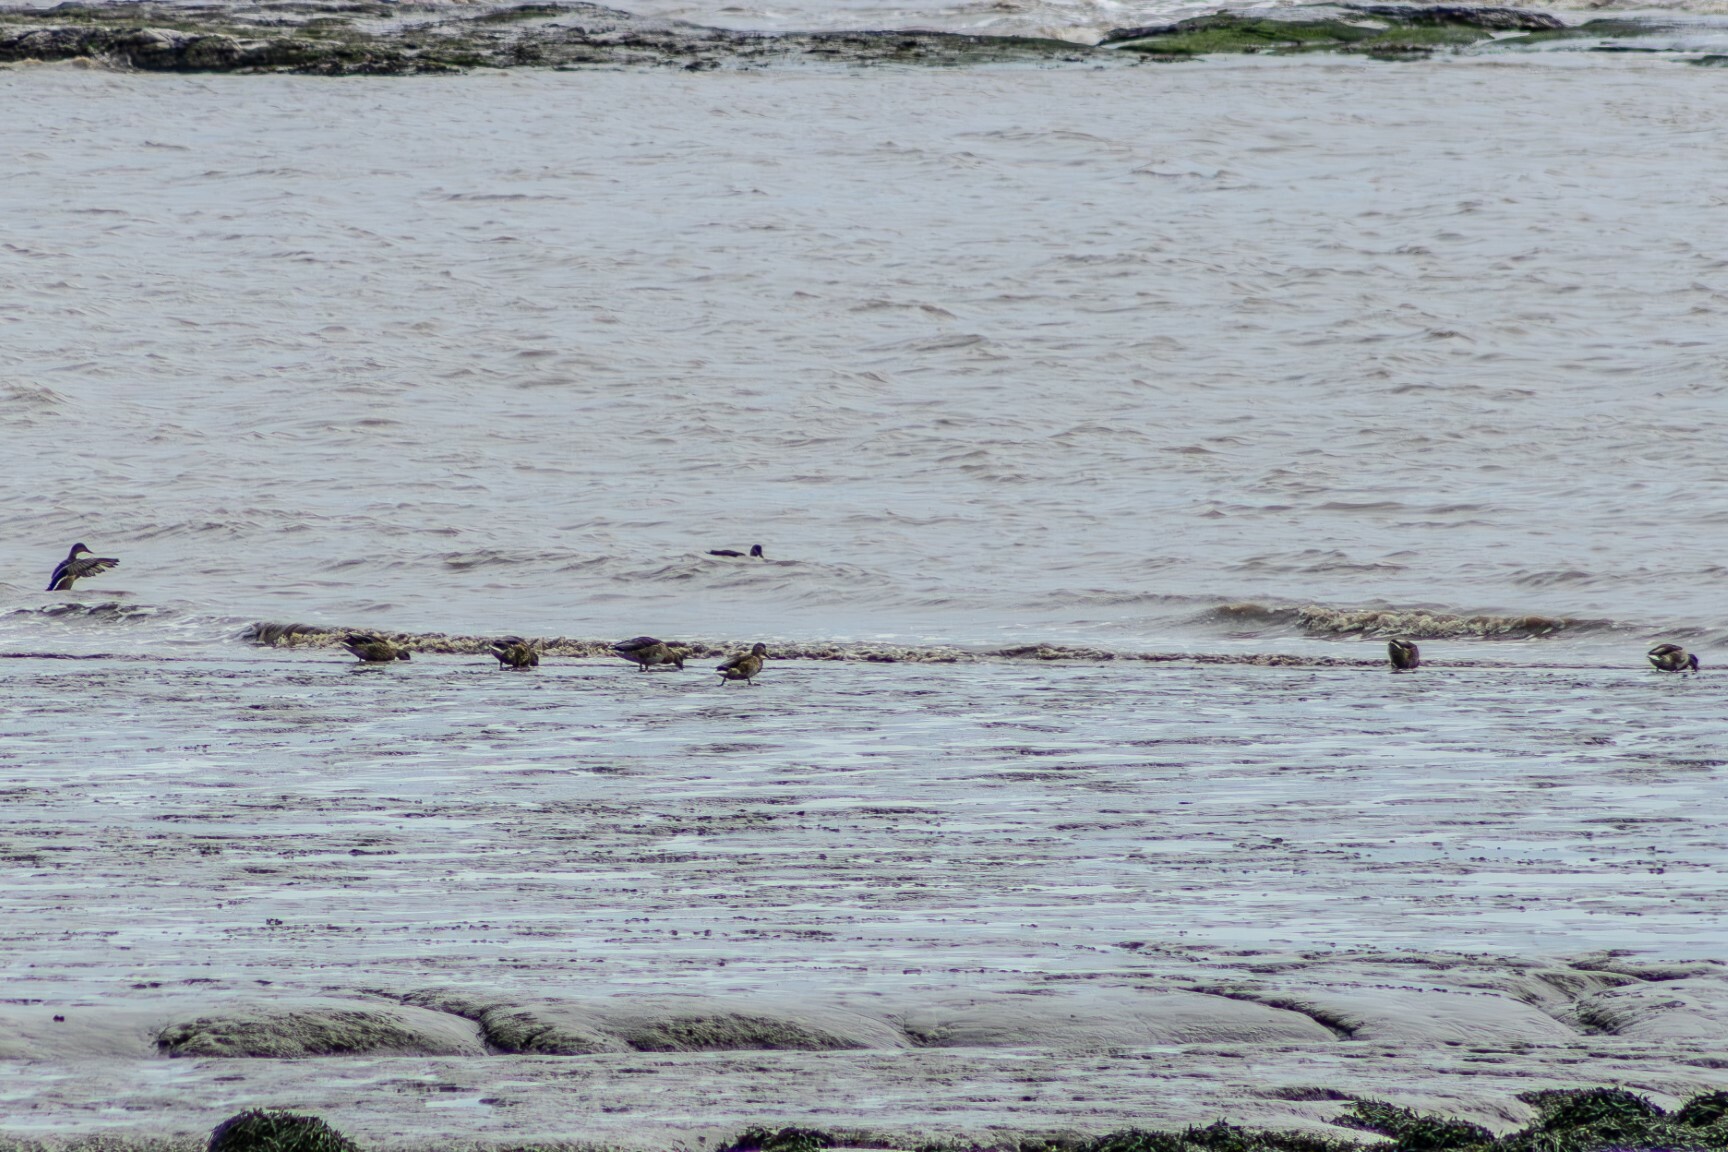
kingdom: Animalia
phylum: Chordata
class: Aves
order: Anseriformes
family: Anatidae
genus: Anas
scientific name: Anas platyrhynchos
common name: Mallard
